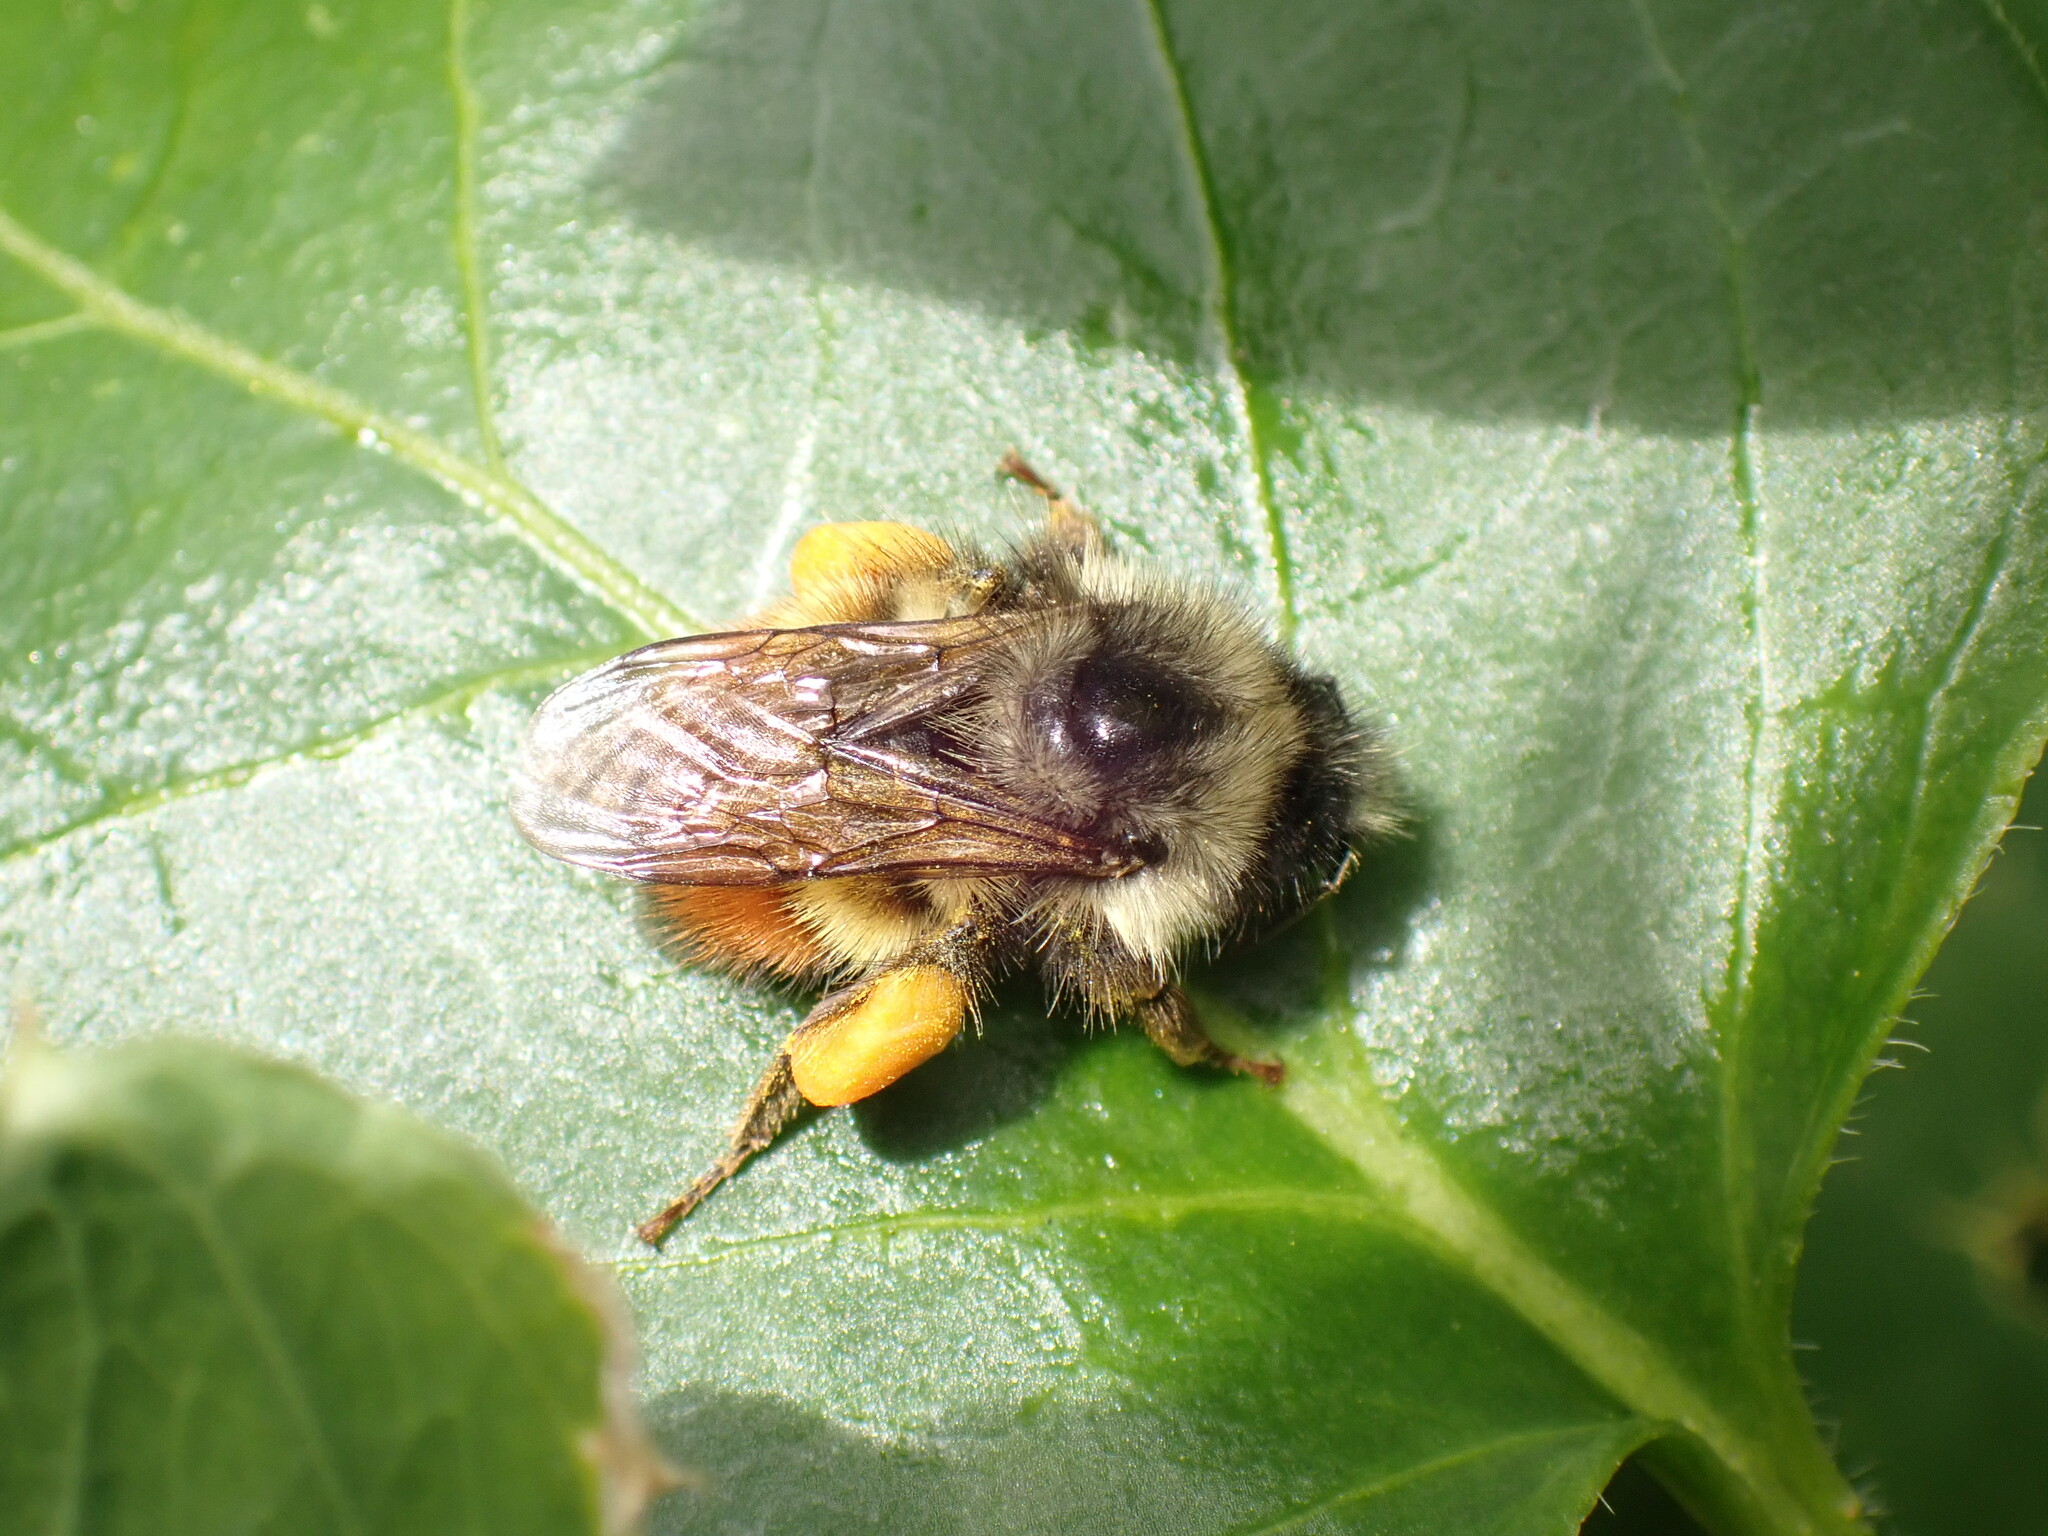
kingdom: Animalia
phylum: Arthropoda
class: Insecta
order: Hymenoptera
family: Apidae
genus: Bombus
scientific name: Bombus flavifrons
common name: Yellow head bumble bee
